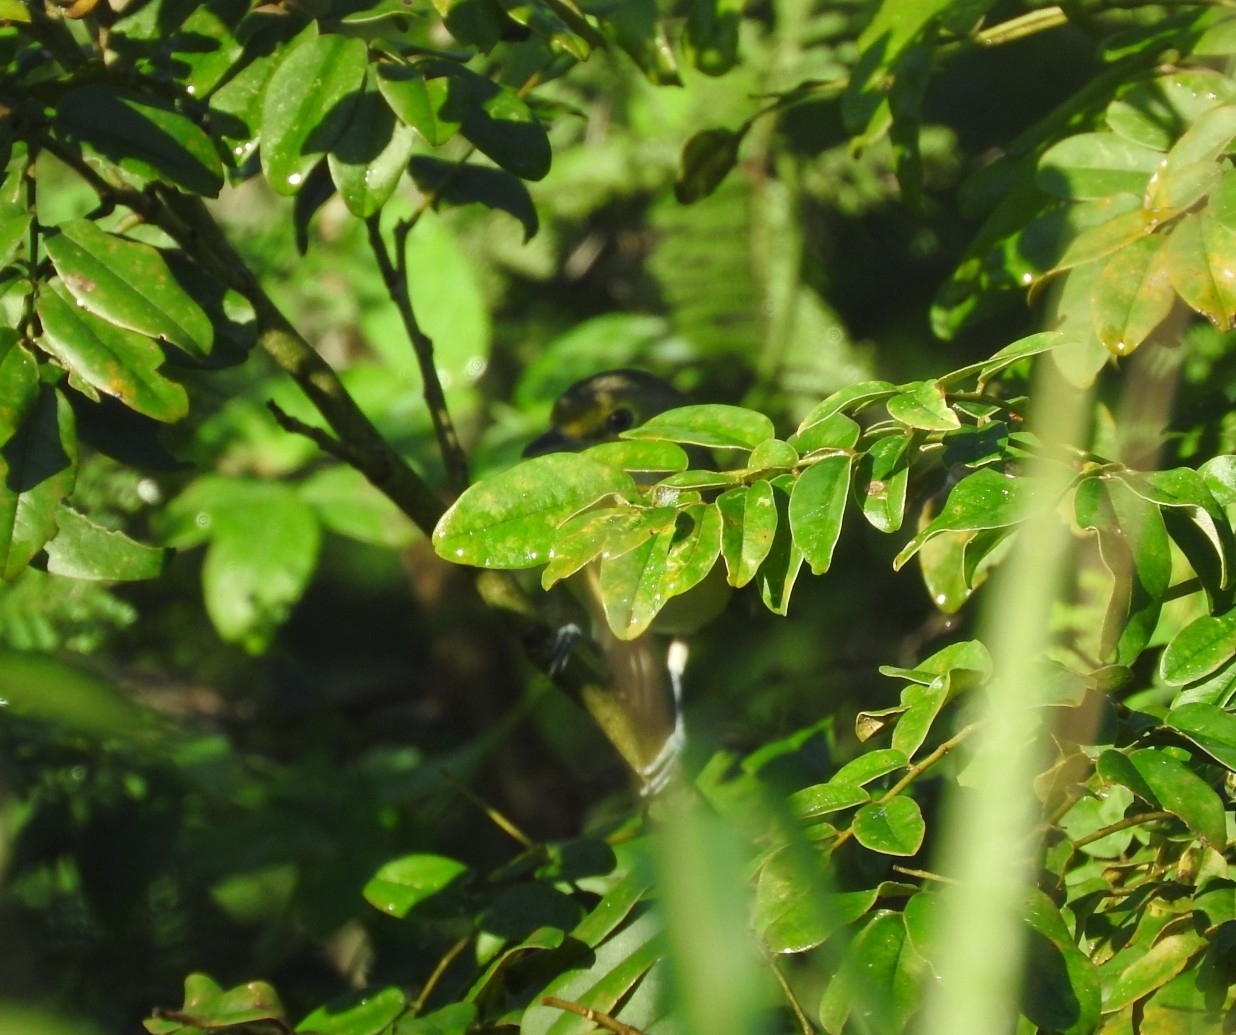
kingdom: Animalia
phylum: Chordata
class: Aves
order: Passeriformes
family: Vireonidae
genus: Vireo
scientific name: Vireo griseus
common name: White-eyed vireo
